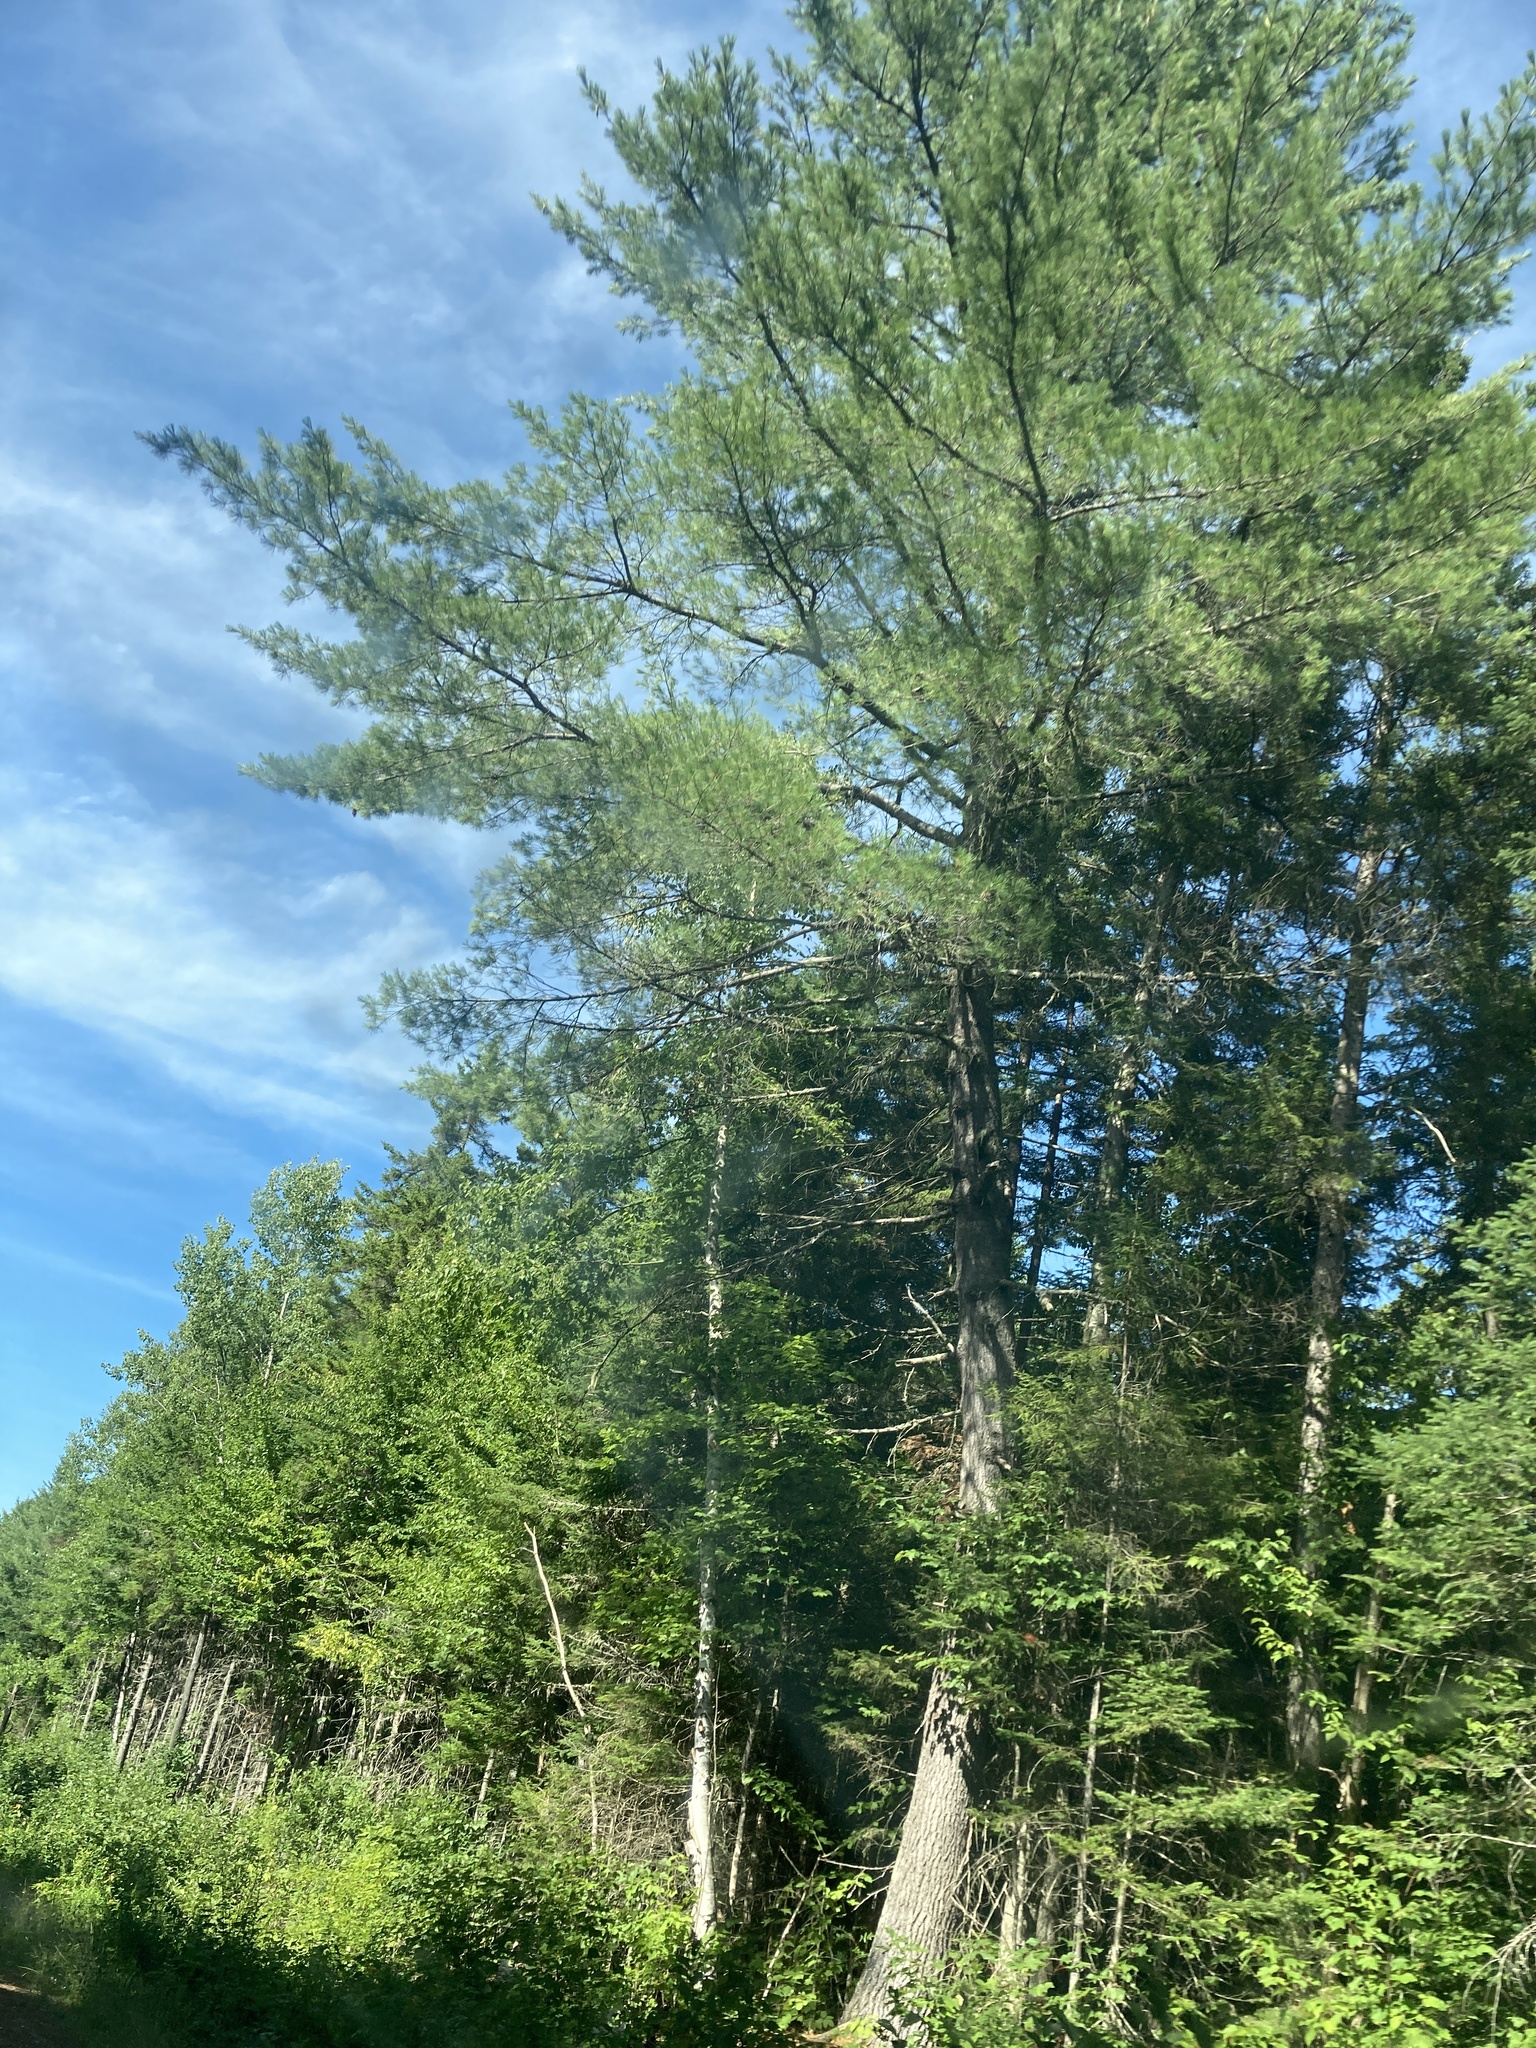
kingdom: Plantae
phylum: Tracheophyta
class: Pinopsida
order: Pinales
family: Pinaceae
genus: Pinus
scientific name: Pinus strobus
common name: Weymouth pine
